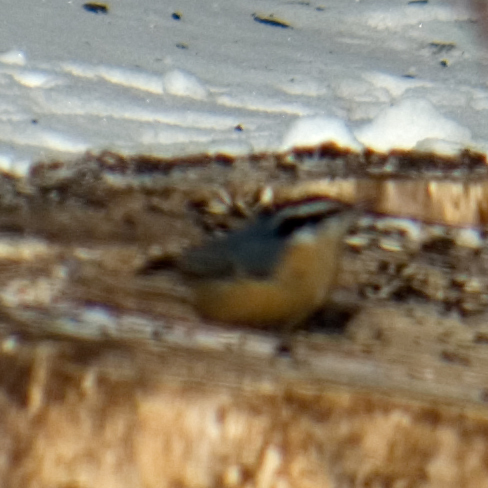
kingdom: Animalia
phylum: Chordata
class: Aves
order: Passeriformes
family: Sittidae
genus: Sitta
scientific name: Sitta canadensis
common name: Red-breasted nuthatch
